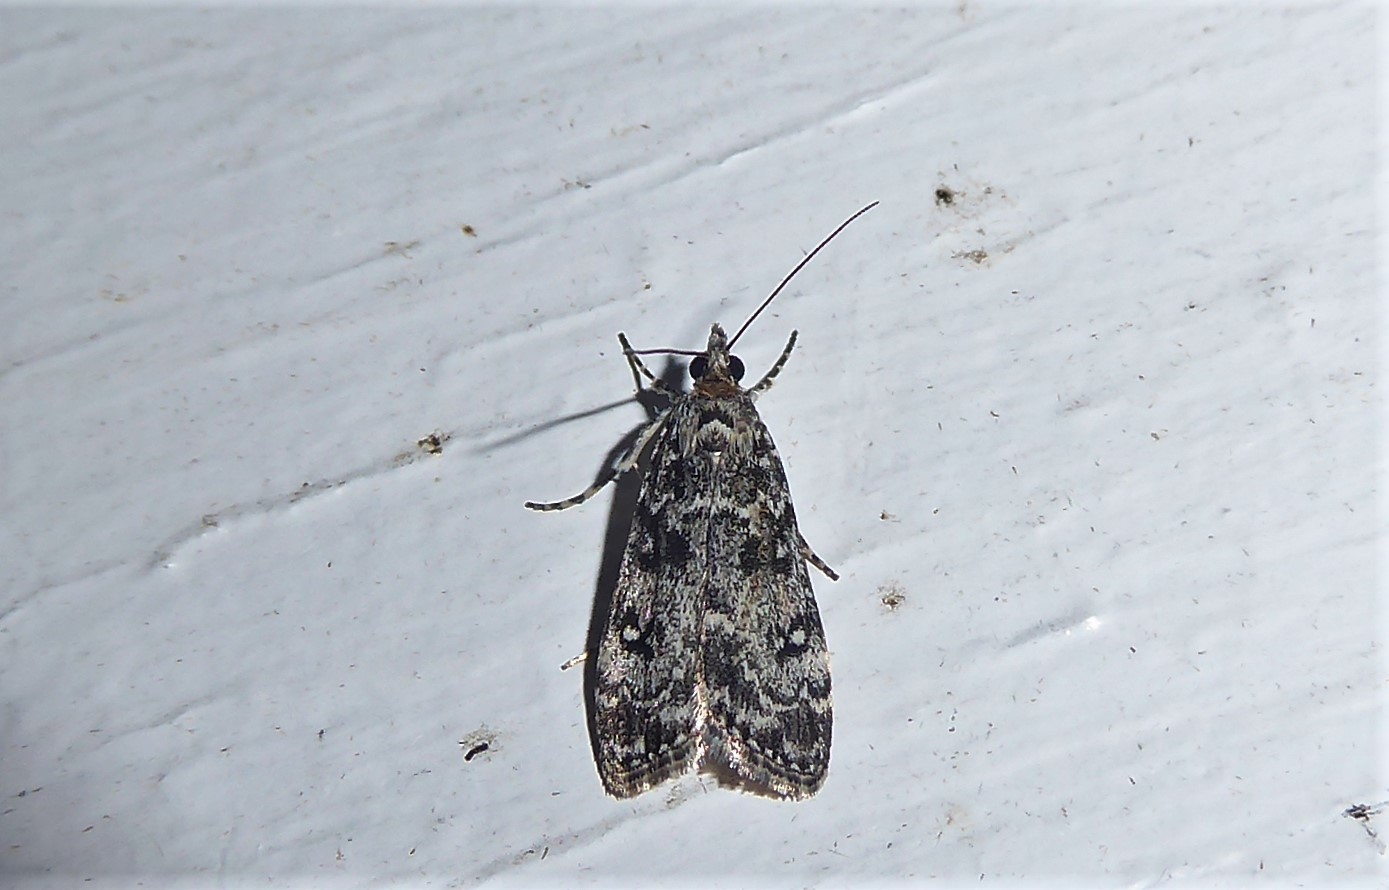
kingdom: Animalia
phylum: Arthropoda
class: Insecta
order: Lepidoptera
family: Crambidae
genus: Eudonia
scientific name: Eudonia philerga
